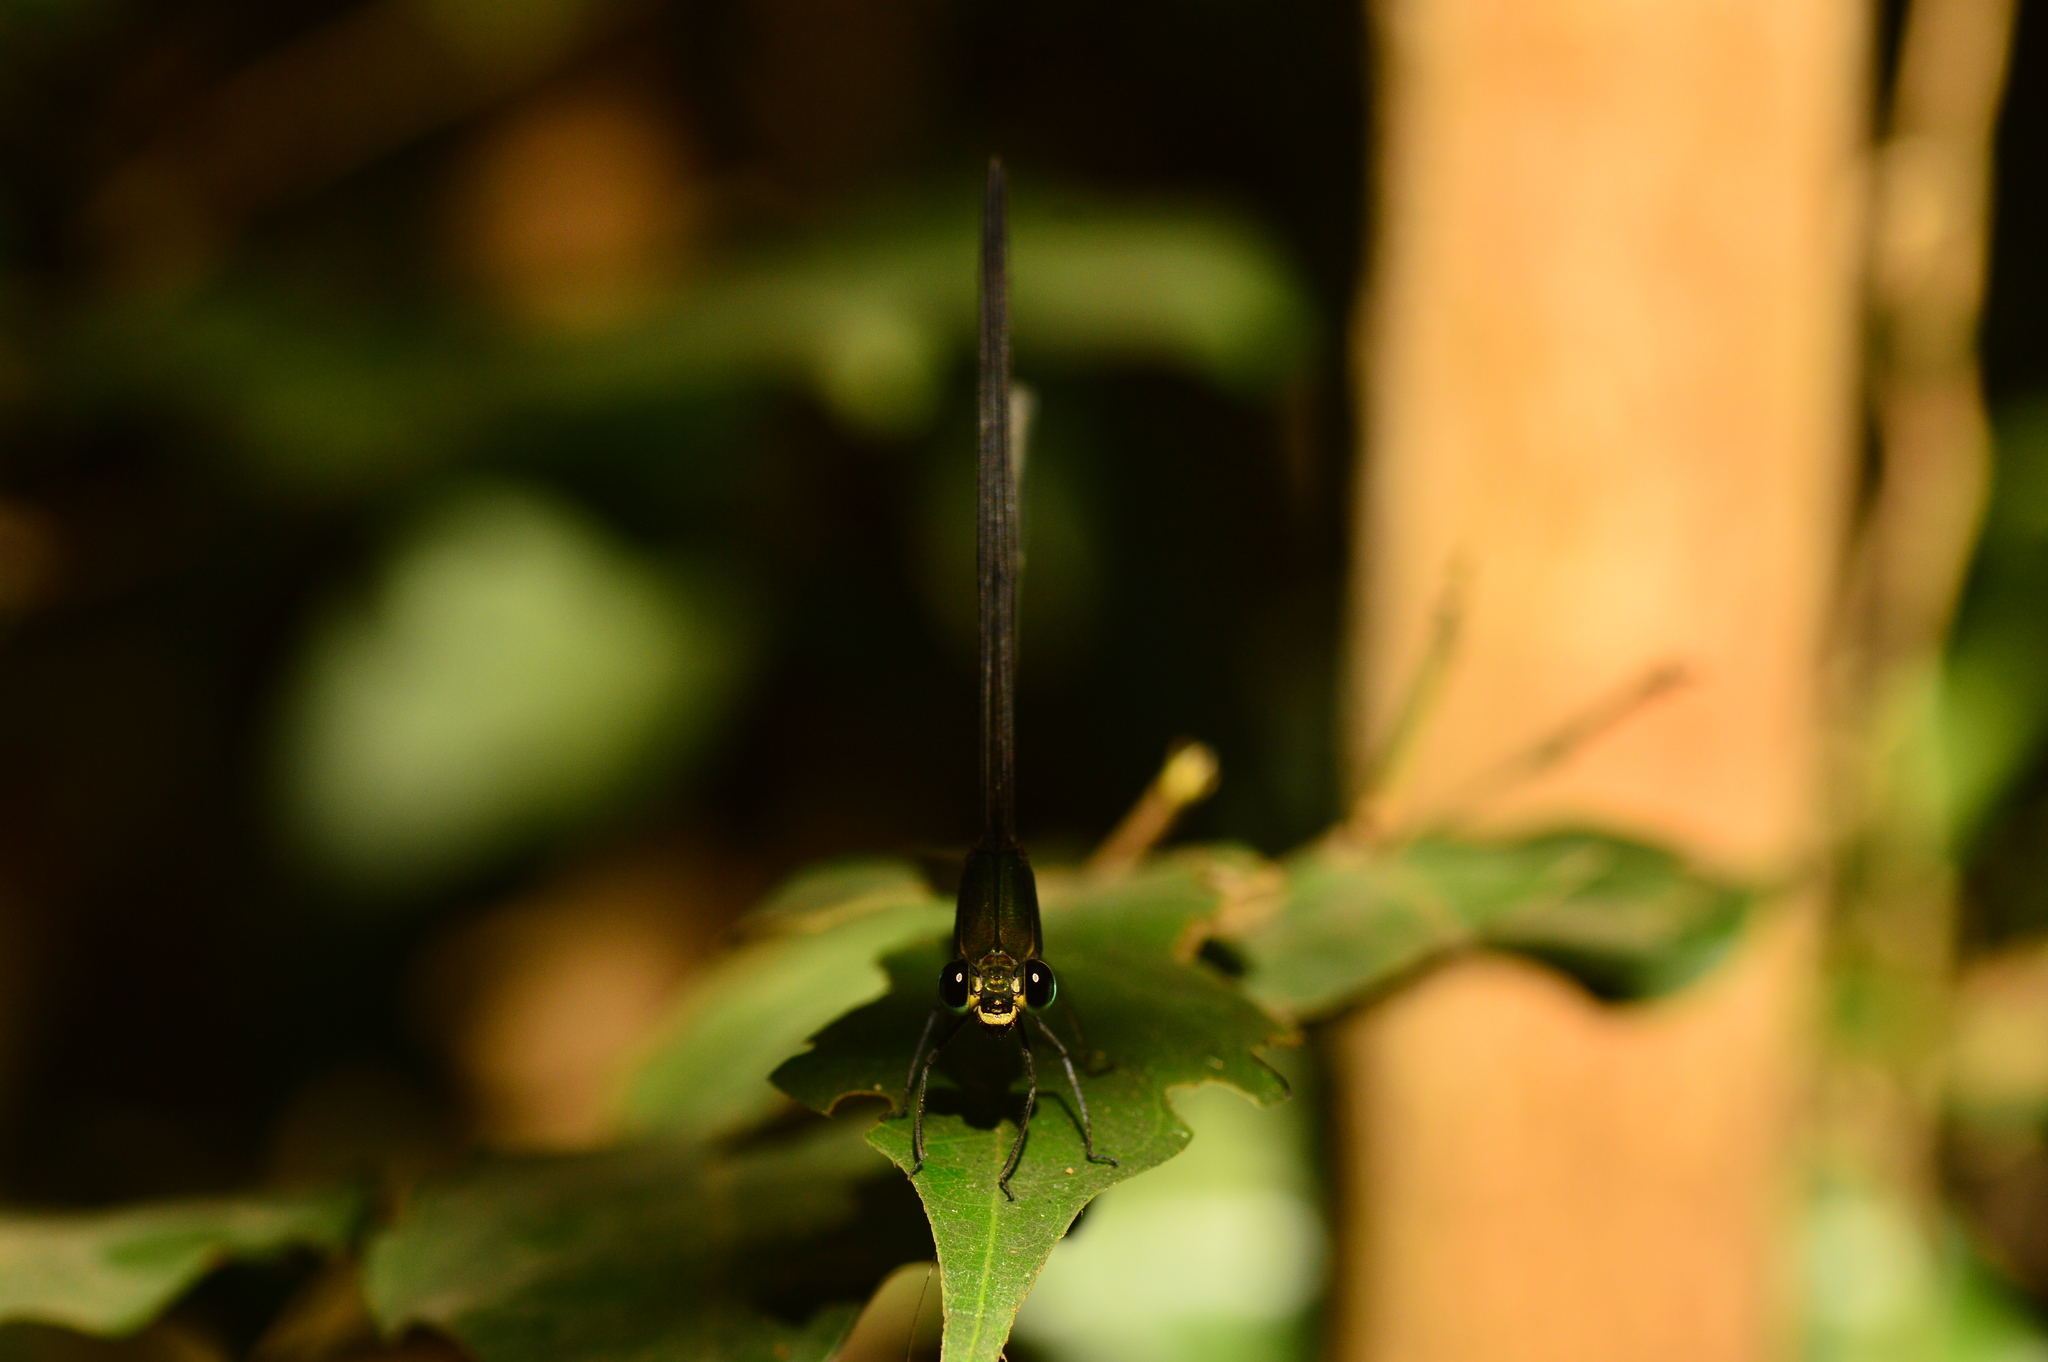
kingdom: Animalia
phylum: Arthropoda
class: Insecta
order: Odonata
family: Calopterygidae
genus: Vestalis
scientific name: Vestalis gracilis
